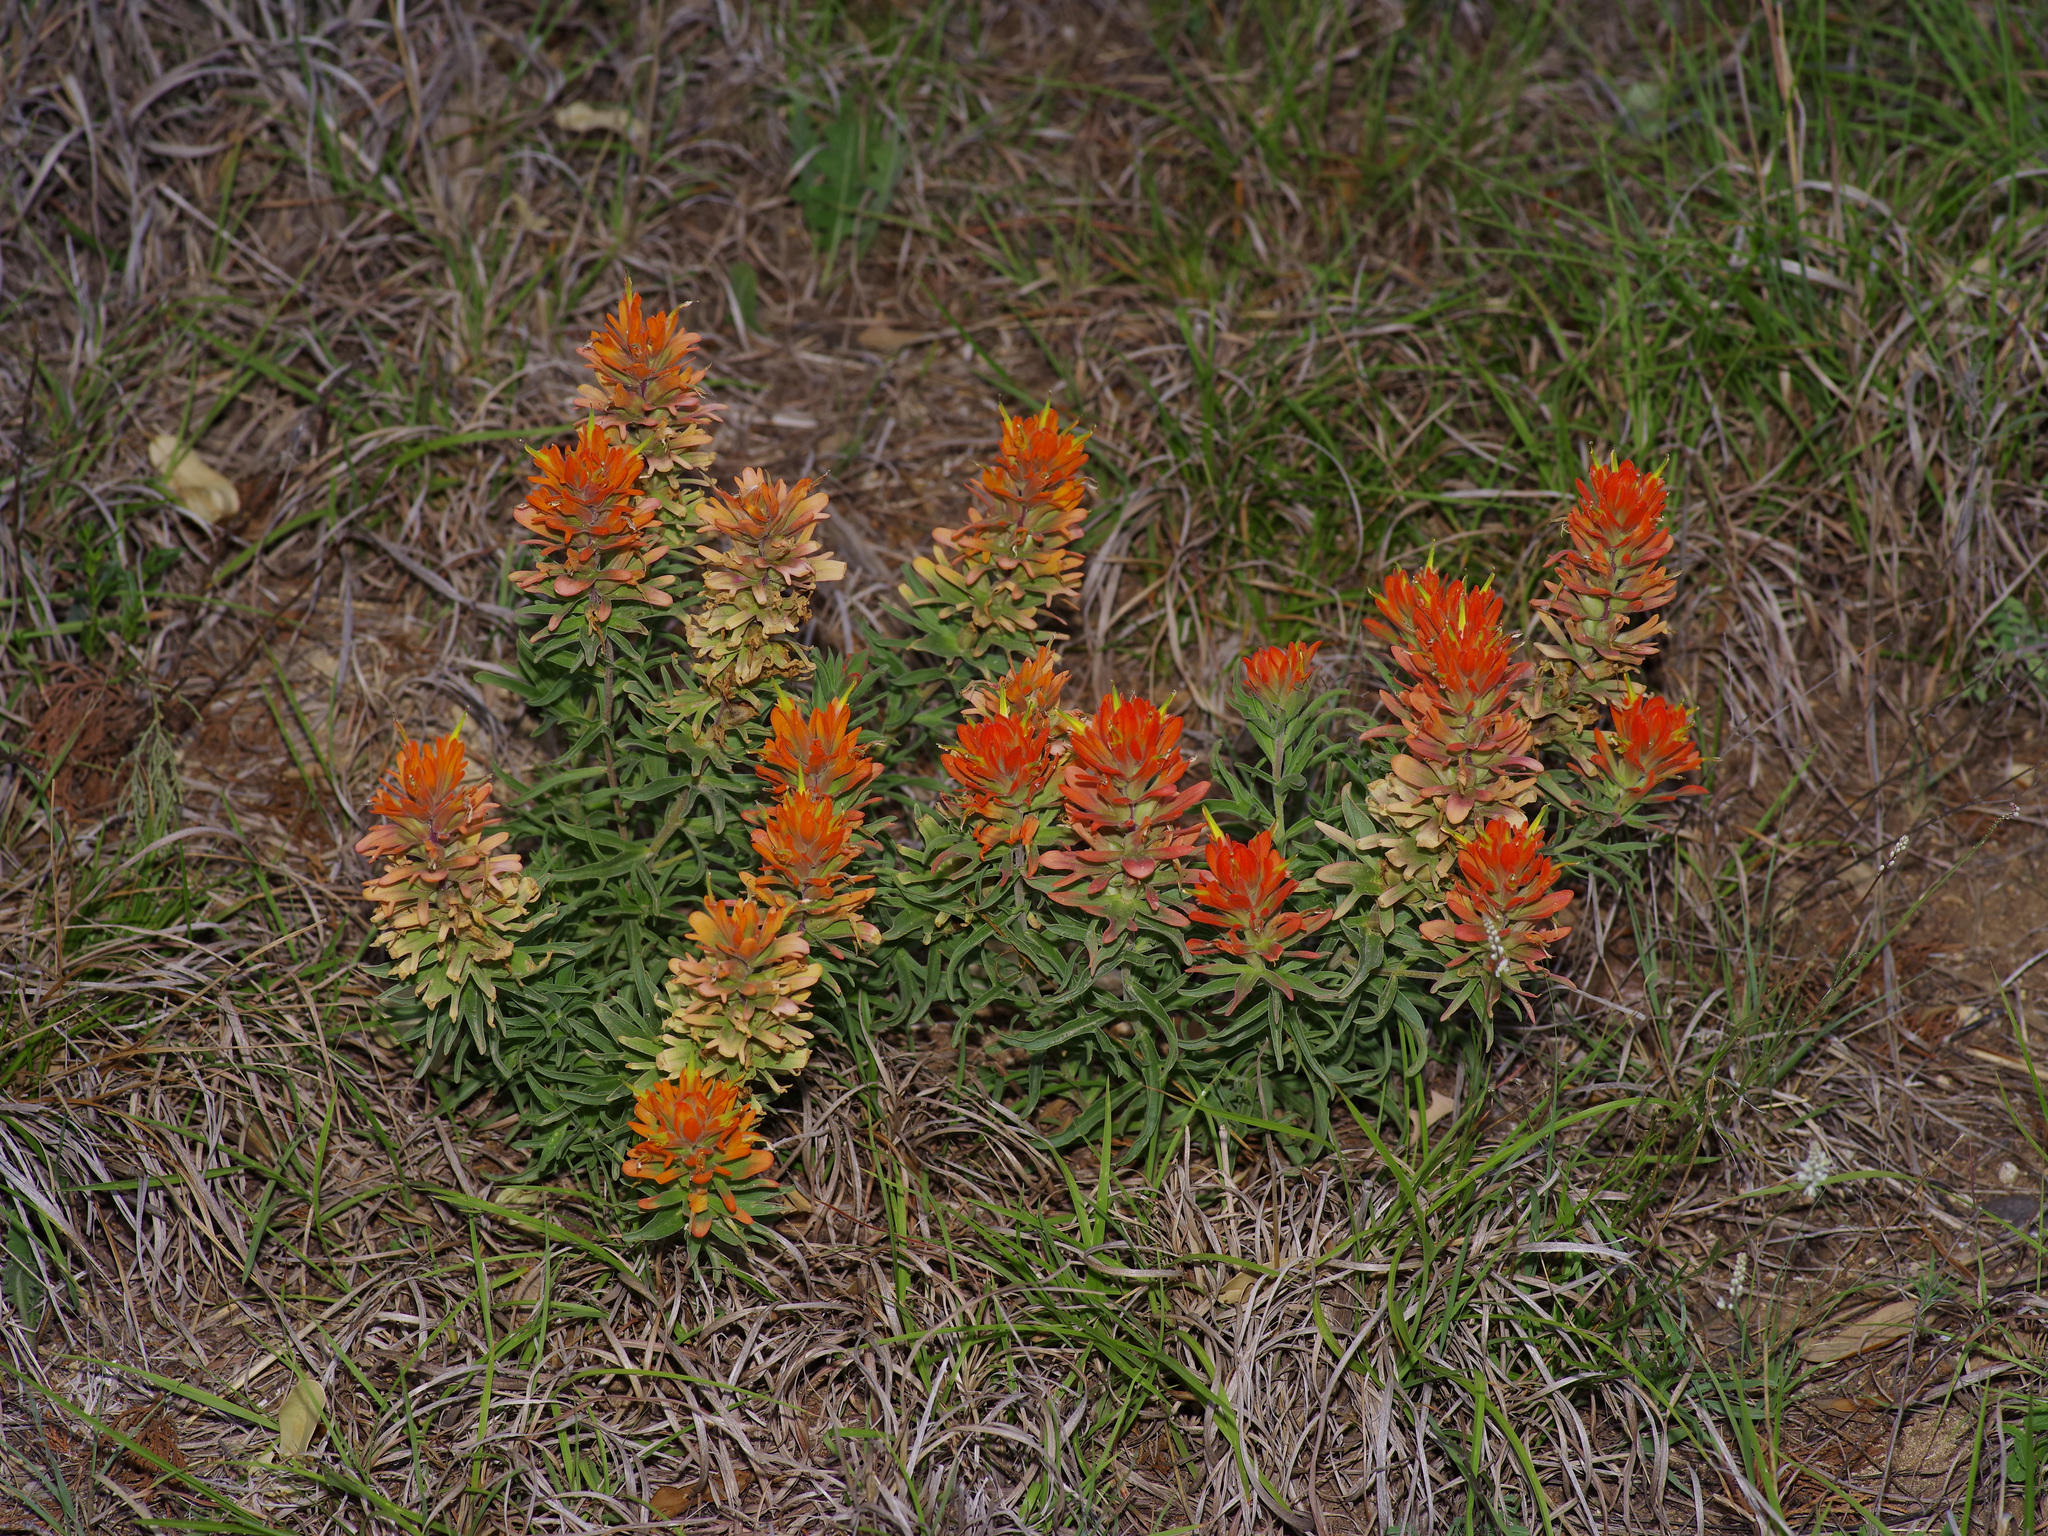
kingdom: Plantae
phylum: Tracheophyta
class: Magnoliopsida
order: Lamiales
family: Orobanchaceae
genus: Castilleja
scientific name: Castilleja lindheimeri
